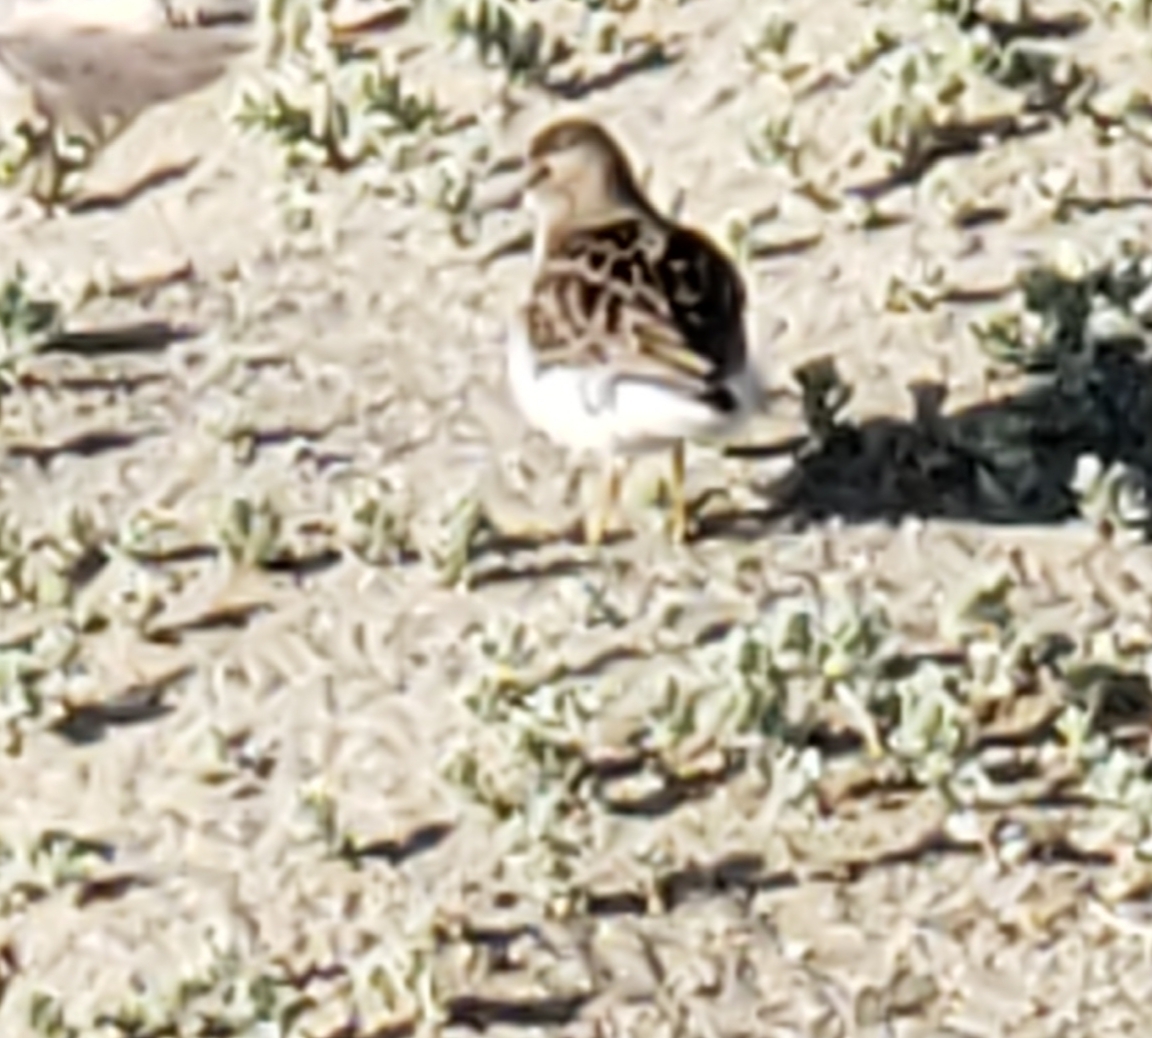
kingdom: Animalia
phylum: Chordata
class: Aves
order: Charadriiformes
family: Scolopacidae
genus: Calidris
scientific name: Calidris minutilla
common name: Least sandpiper
